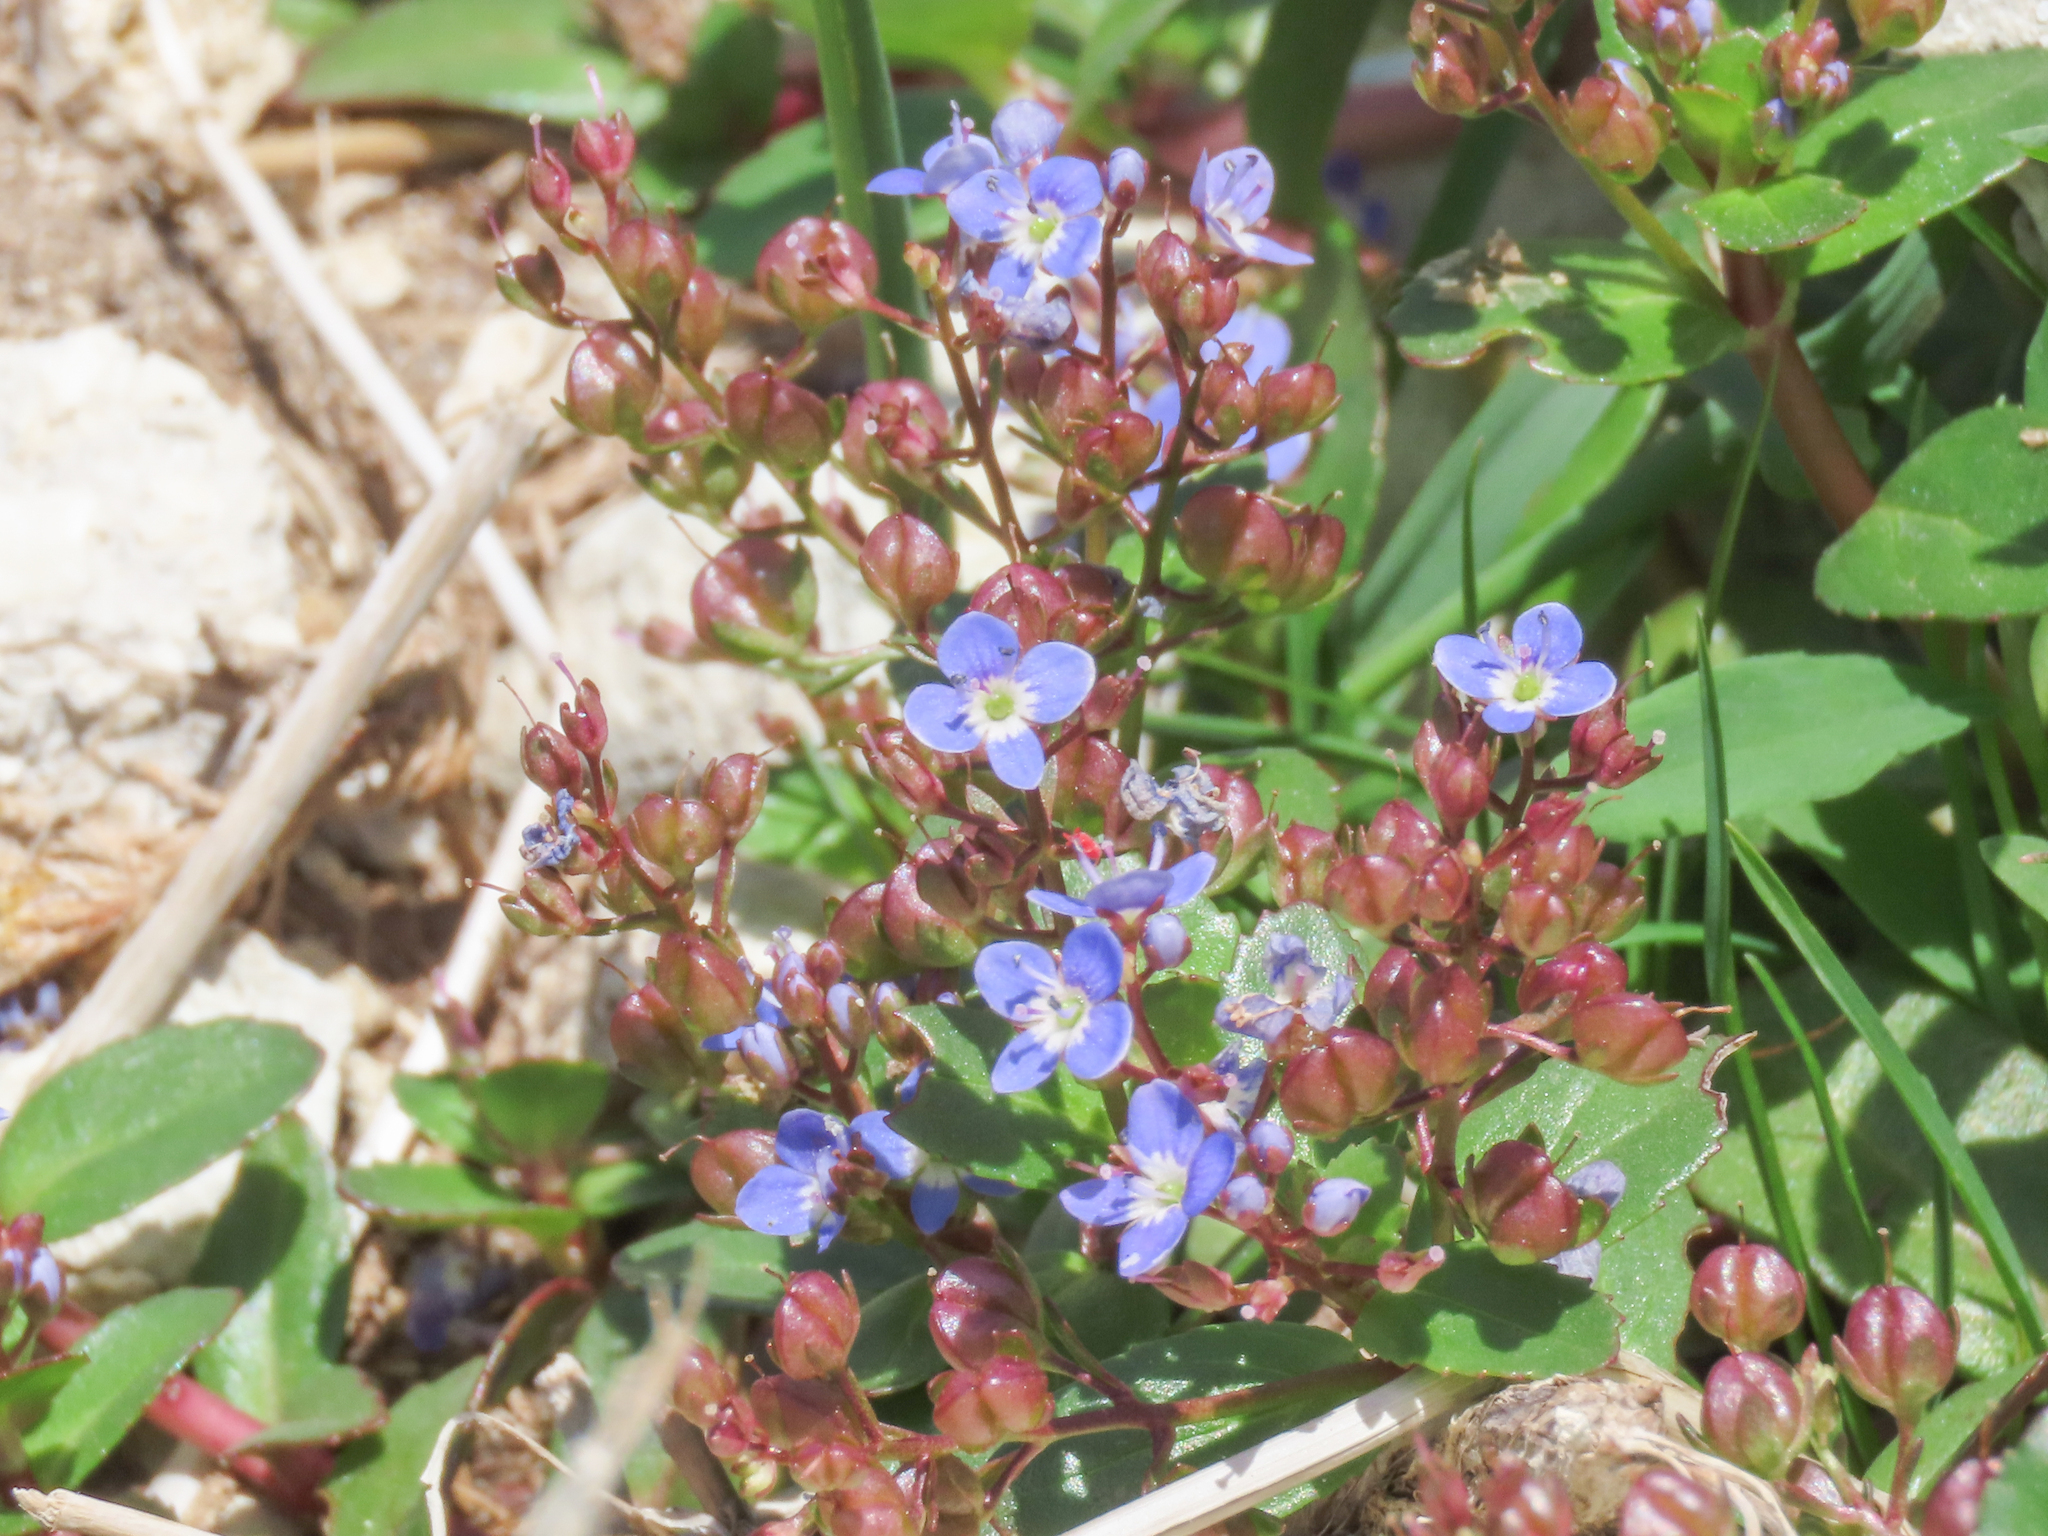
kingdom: Plantae
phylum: Tracheophyta
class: Magnoliopsida
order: Lamiales
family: Plantaginaceae
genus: Veronica
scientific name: Veronica beccabunga
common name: Brooklime
